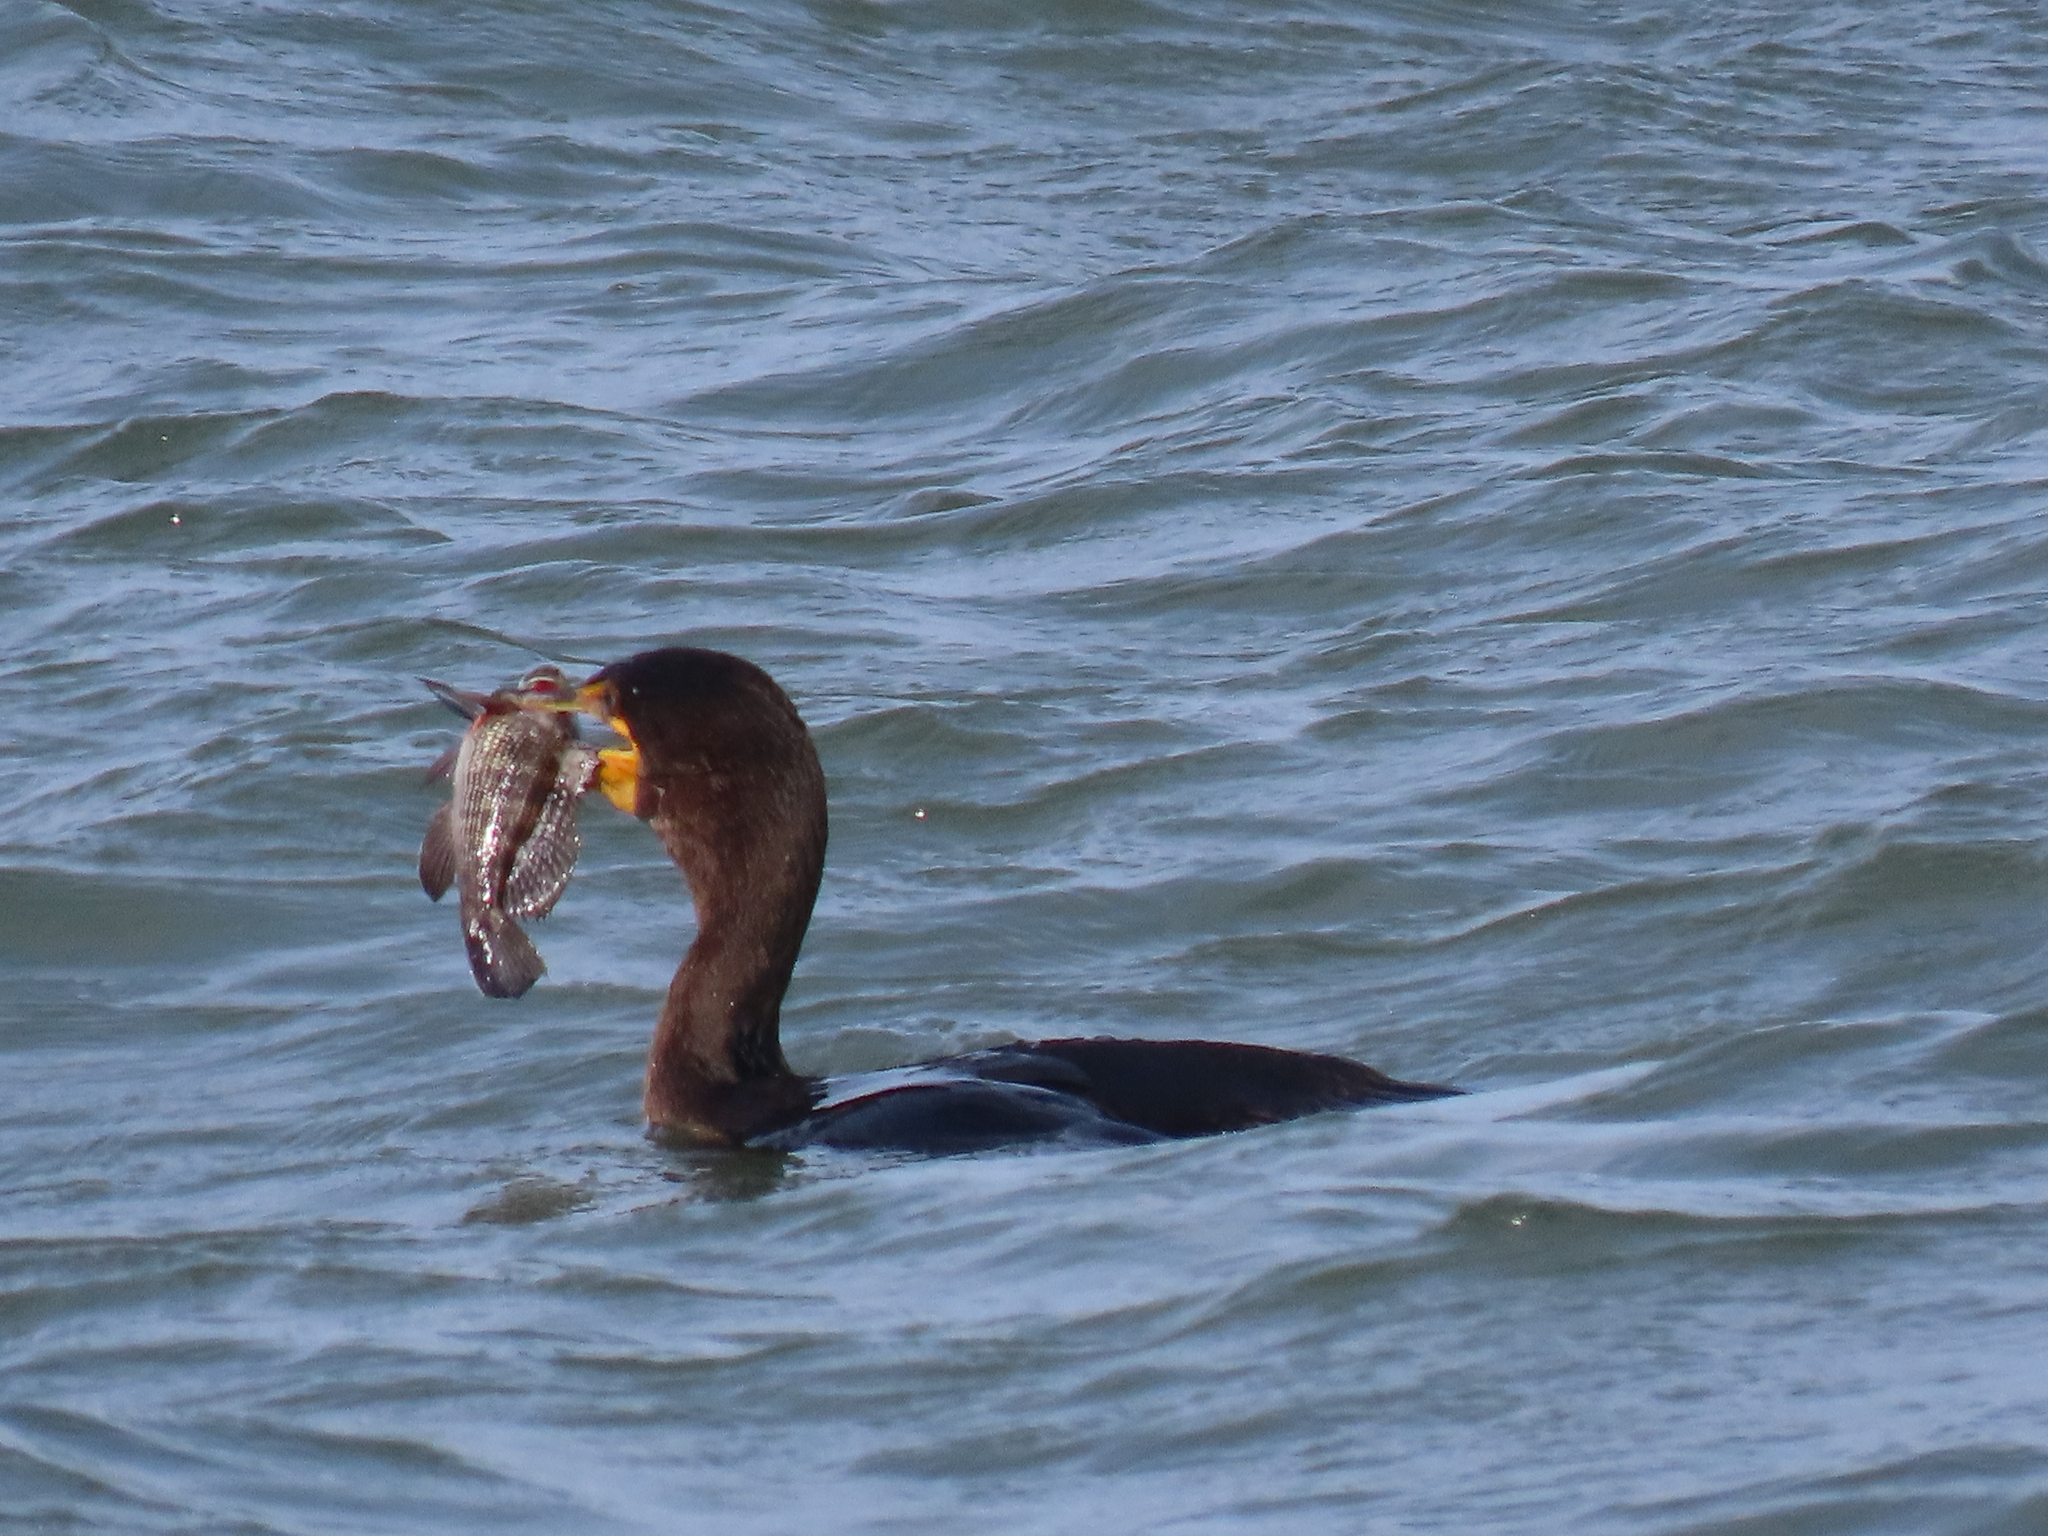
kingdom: Animalia
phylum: Chordata
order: Perciformes
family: Serranidae
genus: Centropristis
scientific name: Centropristis striata
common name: Black sea bass
